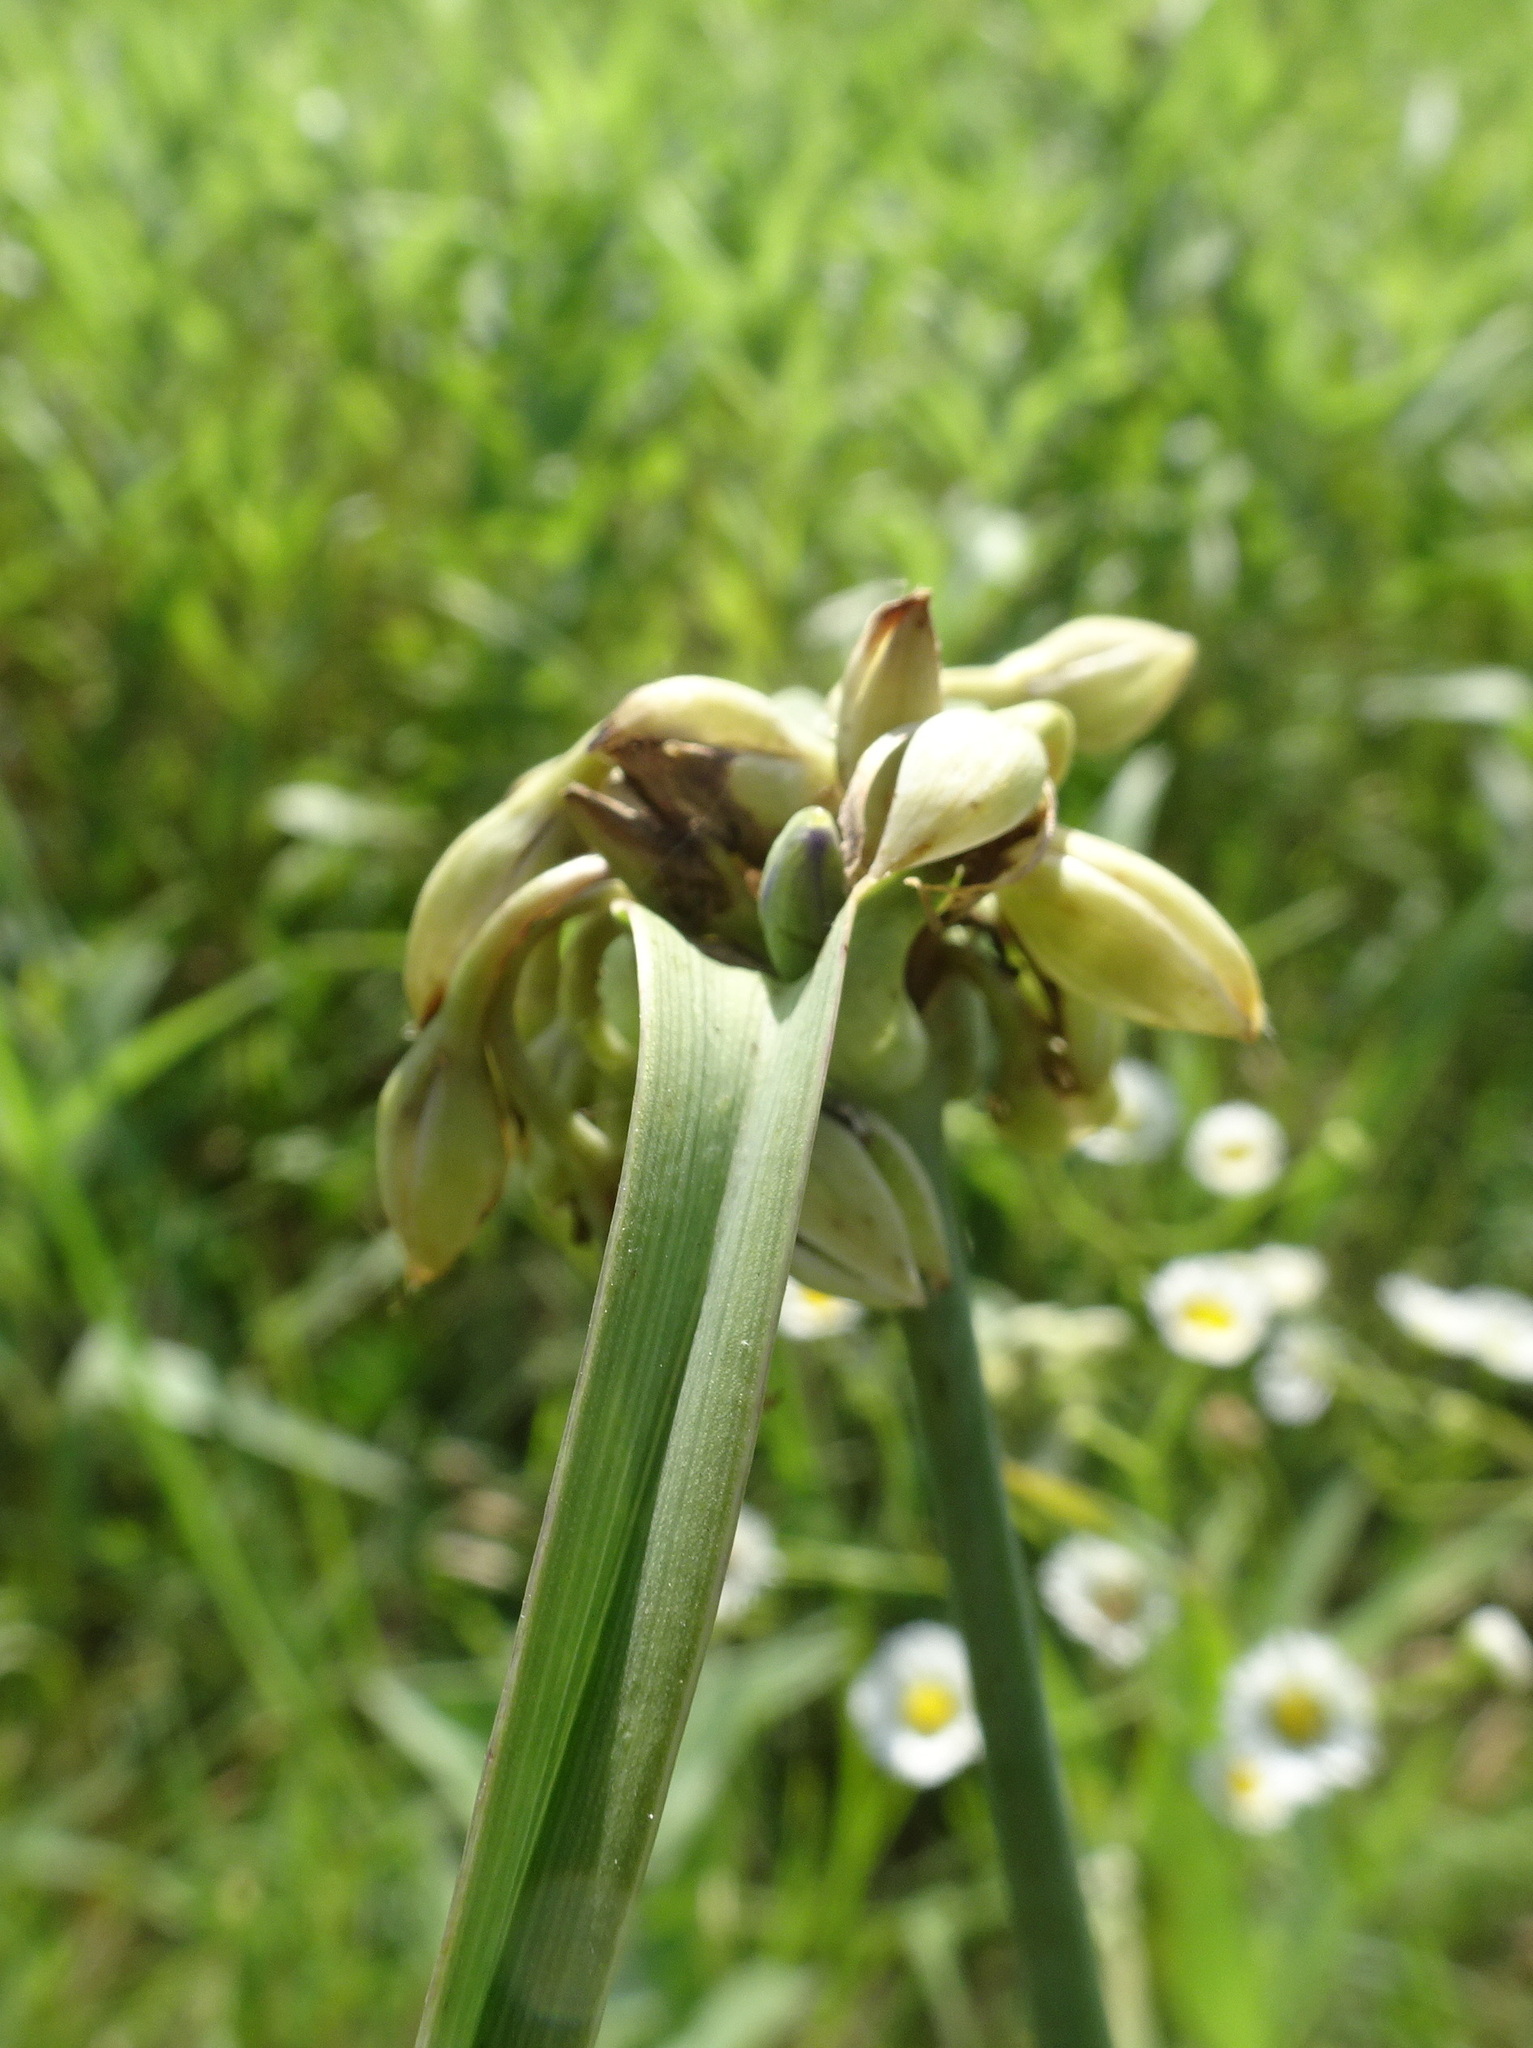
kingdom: Plantae
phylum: Tracheophyta
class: Liliopsida
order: Commelinales
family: Commelinaceae
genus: Tradescantia
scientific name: Tradescantia ohiensis
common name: Ohio spiderwort
